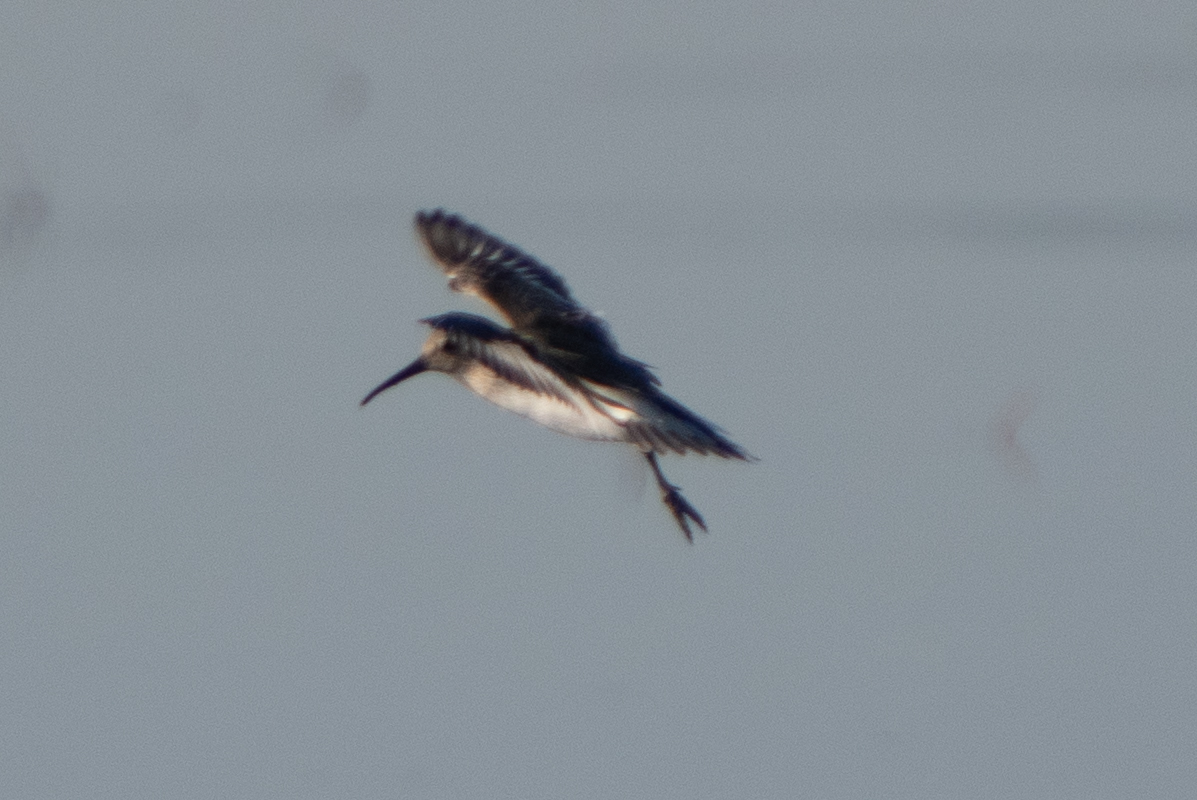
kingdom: Animalia
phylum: Chordata
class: Aves
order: Charadriiformes
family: Scolopacidae
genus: Calidris
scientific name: Calidris alpina
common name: Dunlin
